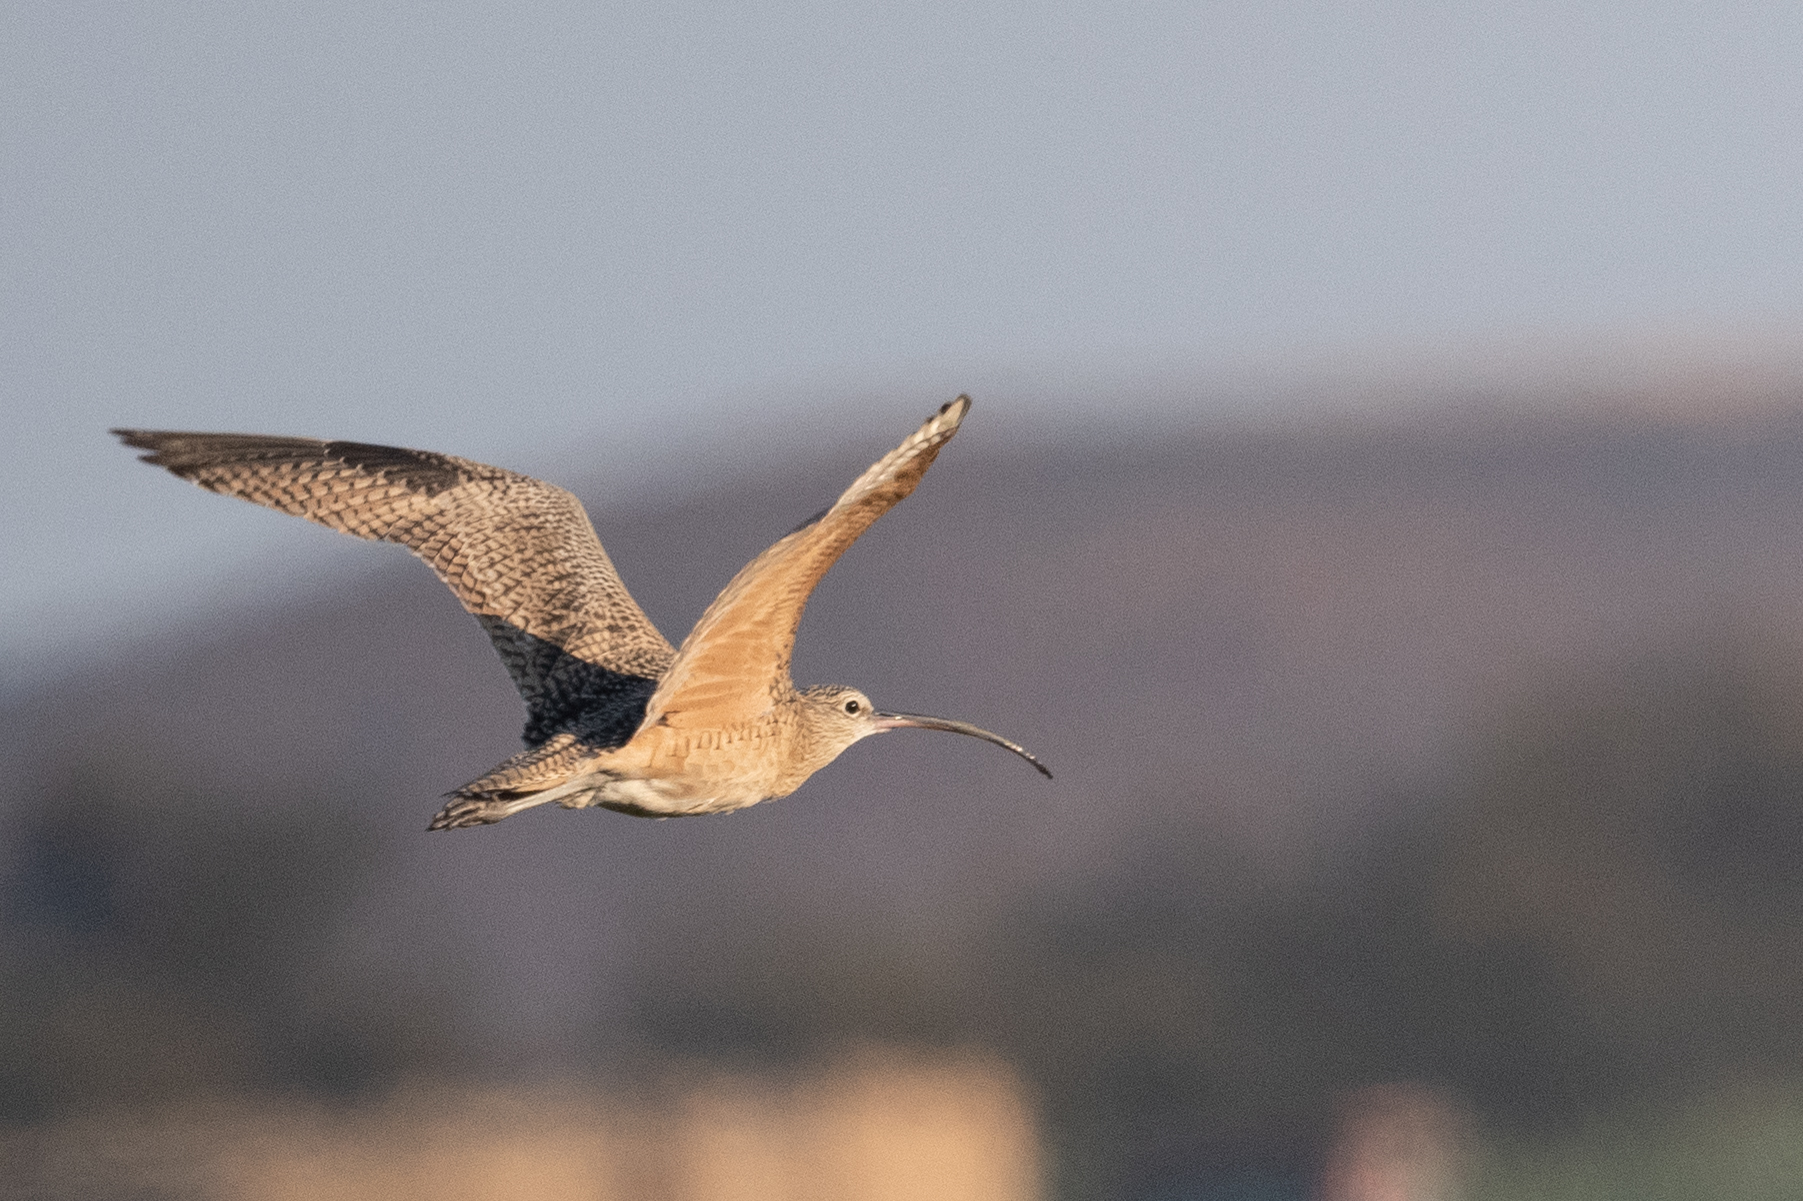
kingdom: Animalia
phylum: Chordata
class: Aves
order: Charadriiformes
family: Scolopacidae
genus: Numenius
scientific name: Numenius americanus
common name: Long-billed curlew
